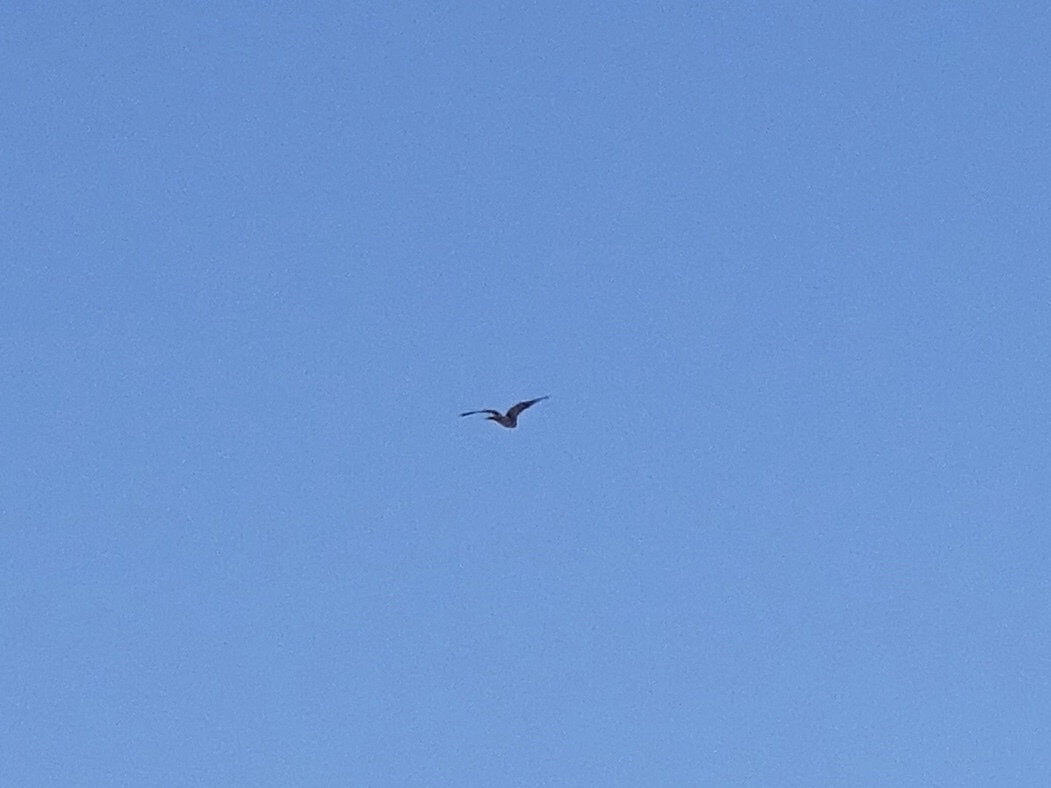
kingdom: Animalia
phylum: Chordata
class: Aves
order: Accipitriformes
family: Accipitridae
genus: Buteo
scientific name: Buteo jamaicensis
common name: Red-tailed hawk
